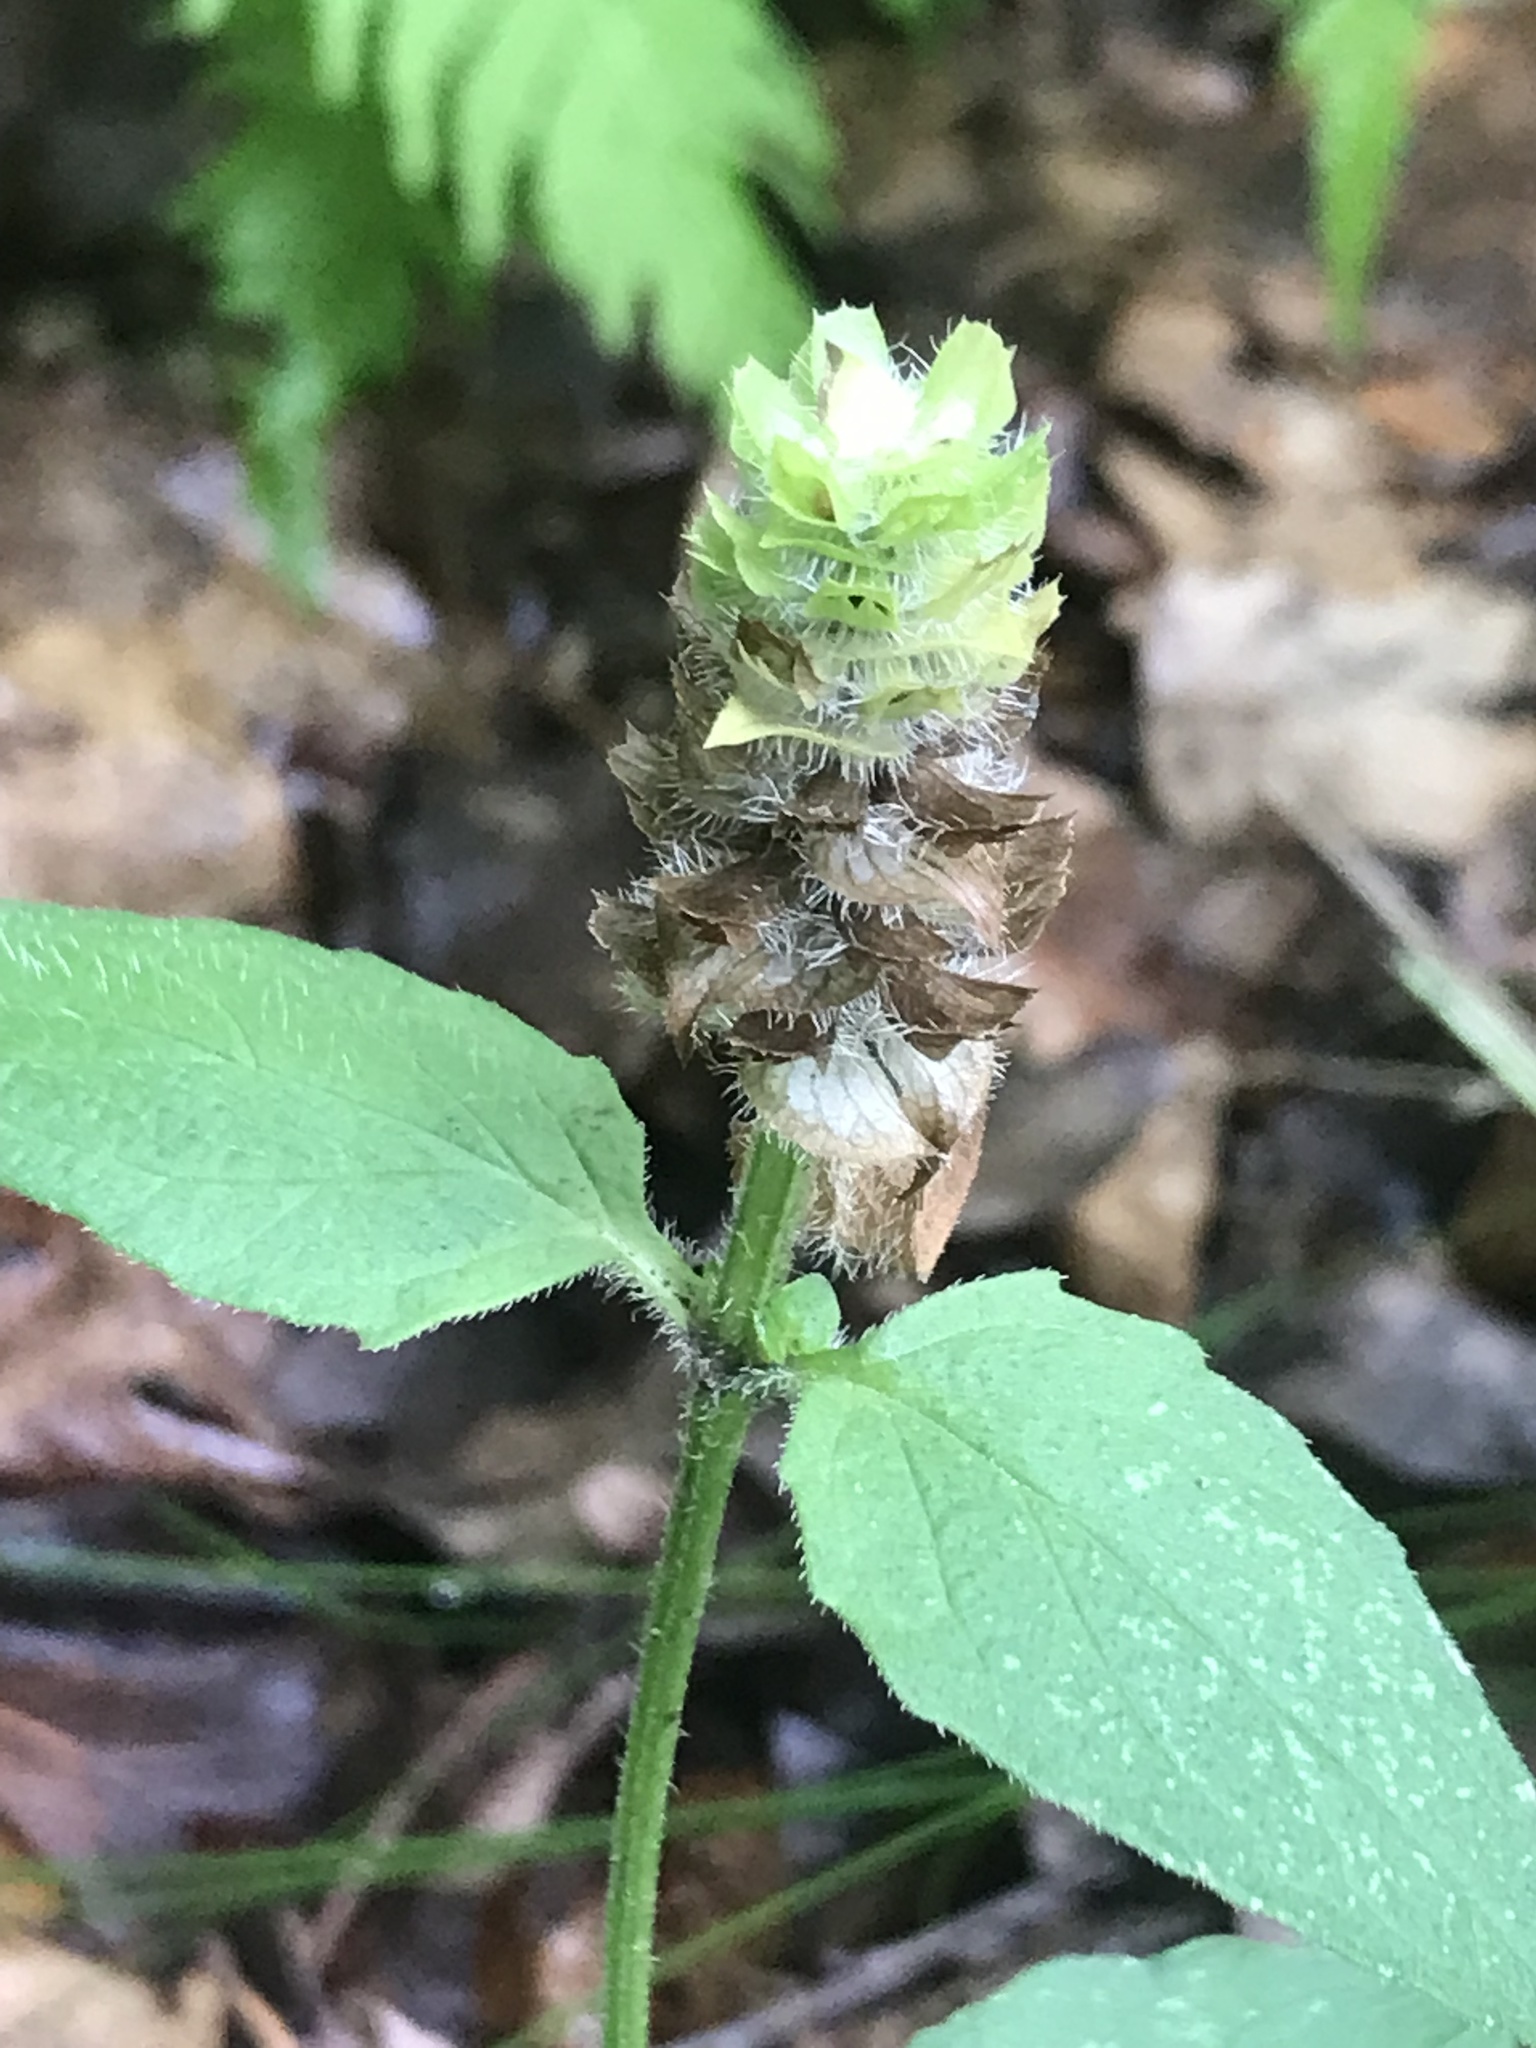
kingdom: Plantae
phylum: Tracheophyta
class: Magnoliopsida
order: Lamiales
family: Lamiaceae
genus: Prunella
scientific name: Prunella vulgaris
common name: Heal-all
